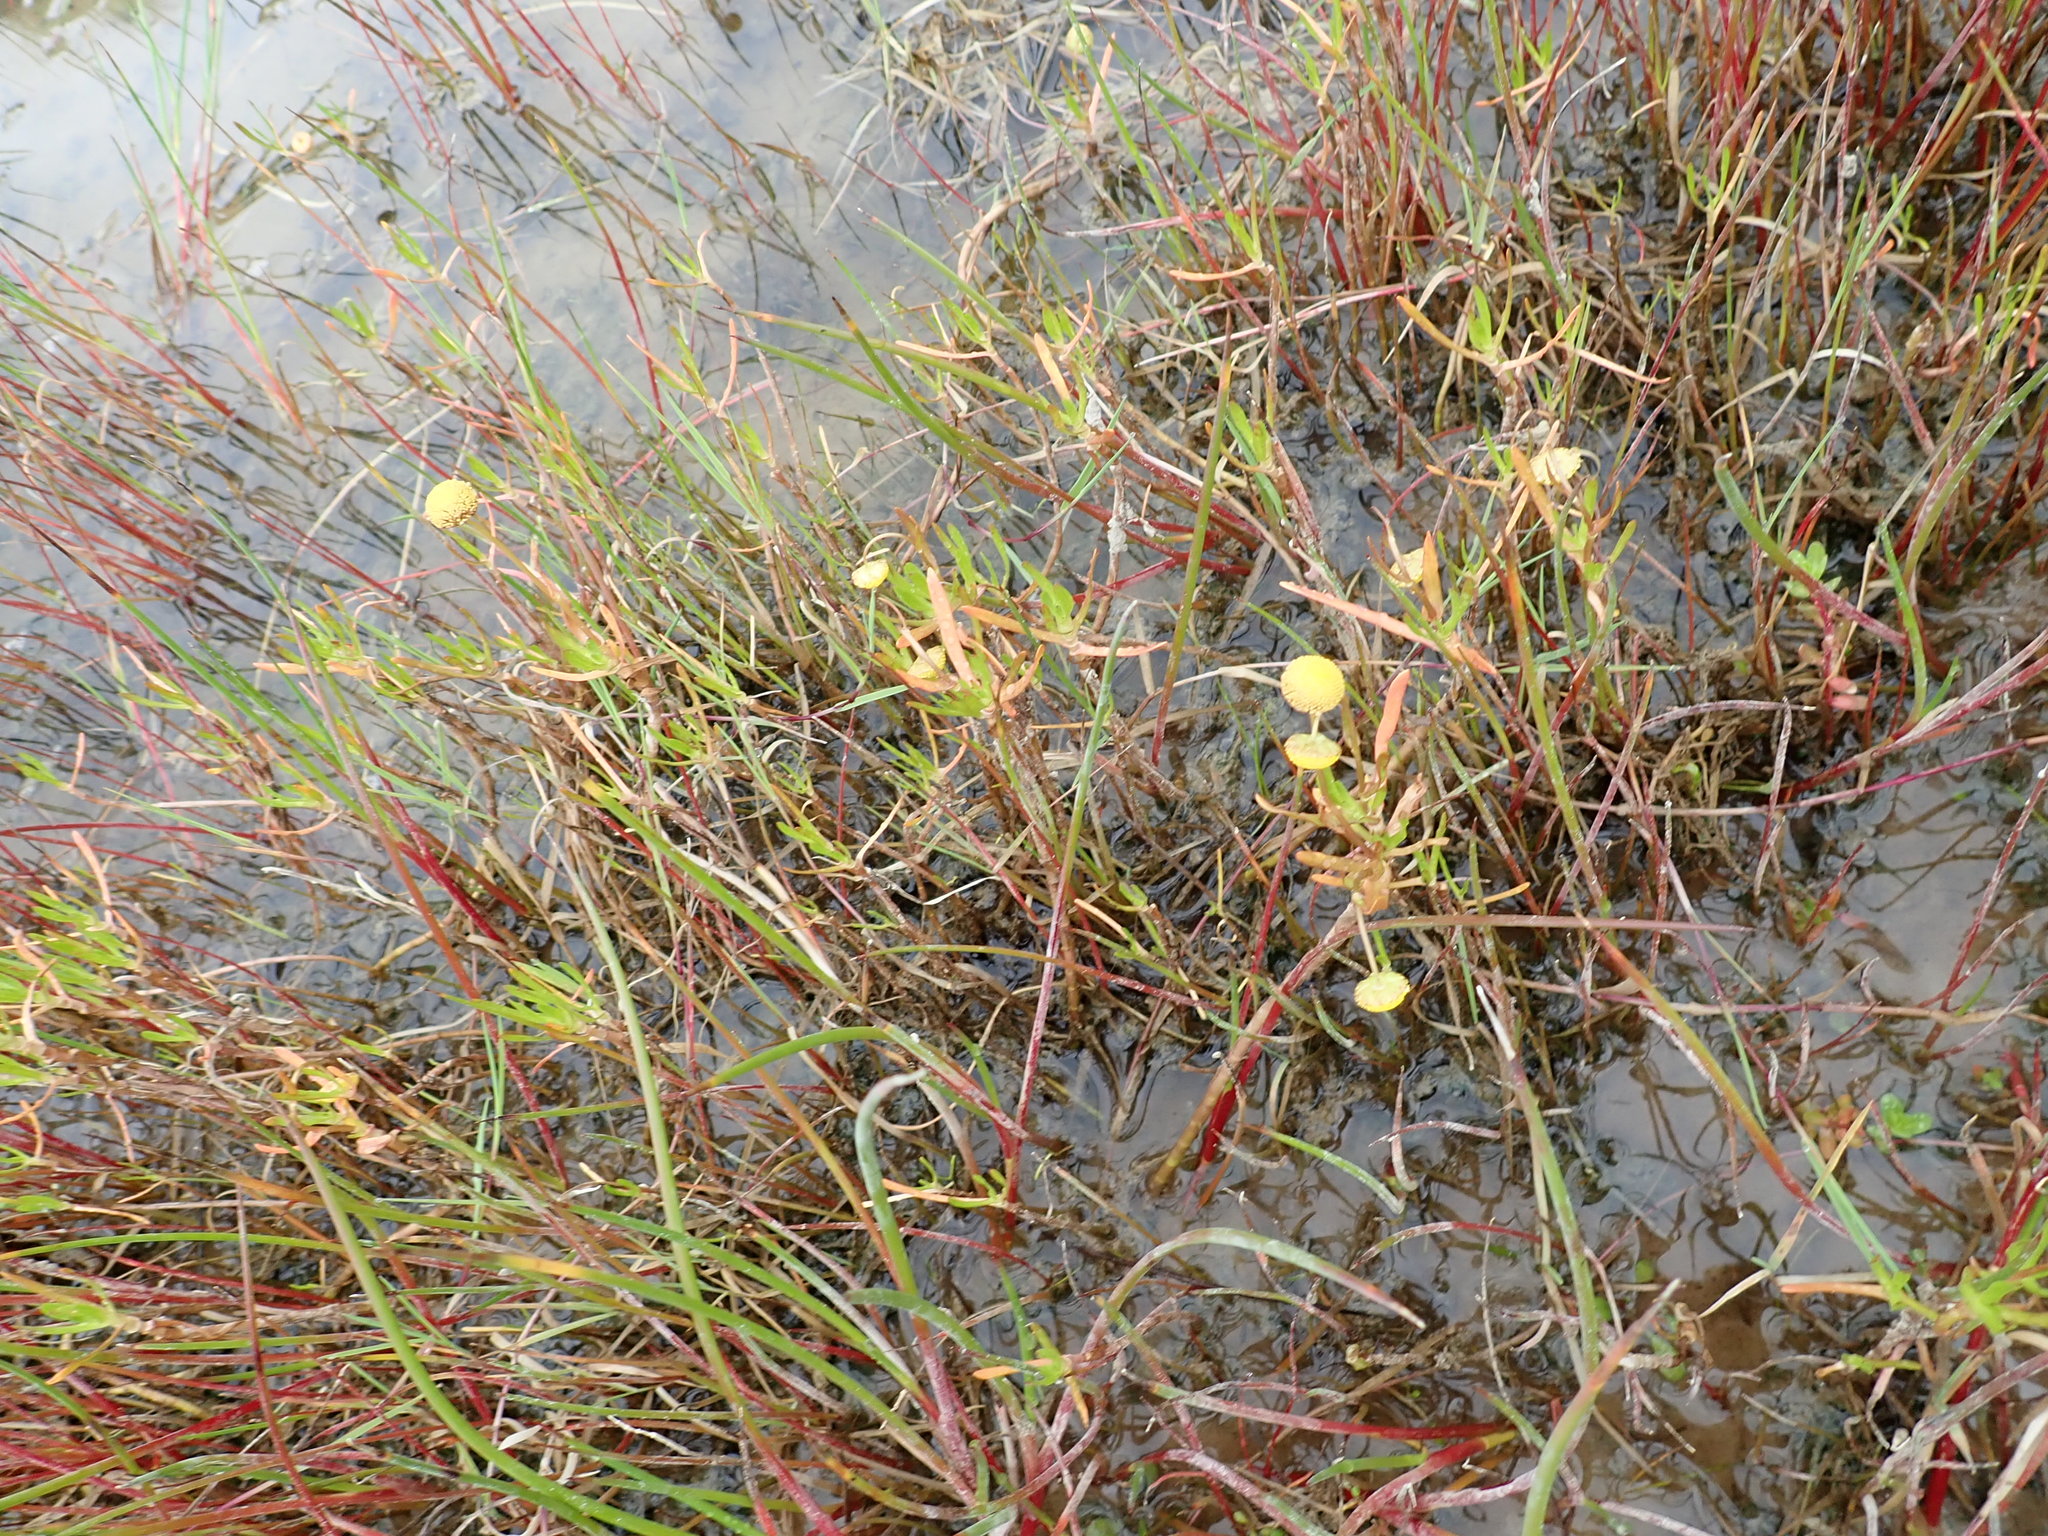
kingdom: Plantae
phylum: Tracheophyta
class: Magnoliopsida
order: Asterales
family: Asteraceae
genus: Cotula
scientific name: Cotula coronopifolia
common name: Buttonweed
